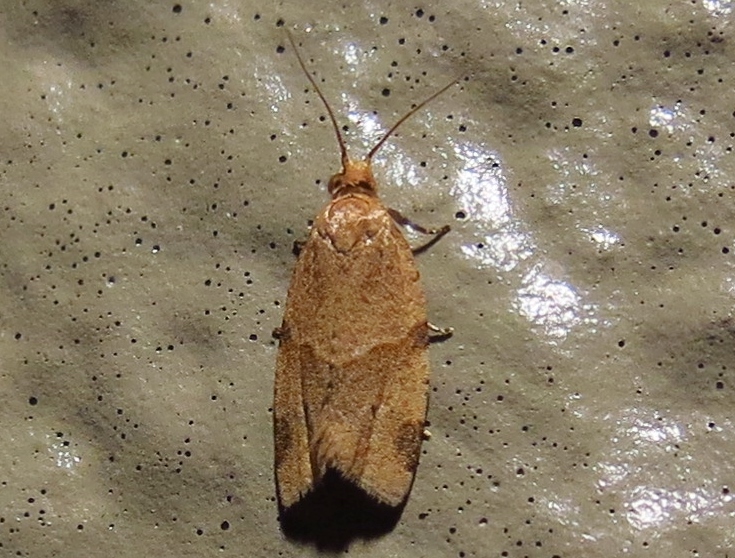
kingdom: Animalia
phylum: Arthropoda
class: Insecta
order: Lepidoptera
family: Tortricidae
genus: Clepsis
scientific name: Clepsis peritana
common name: Garden tortrix
